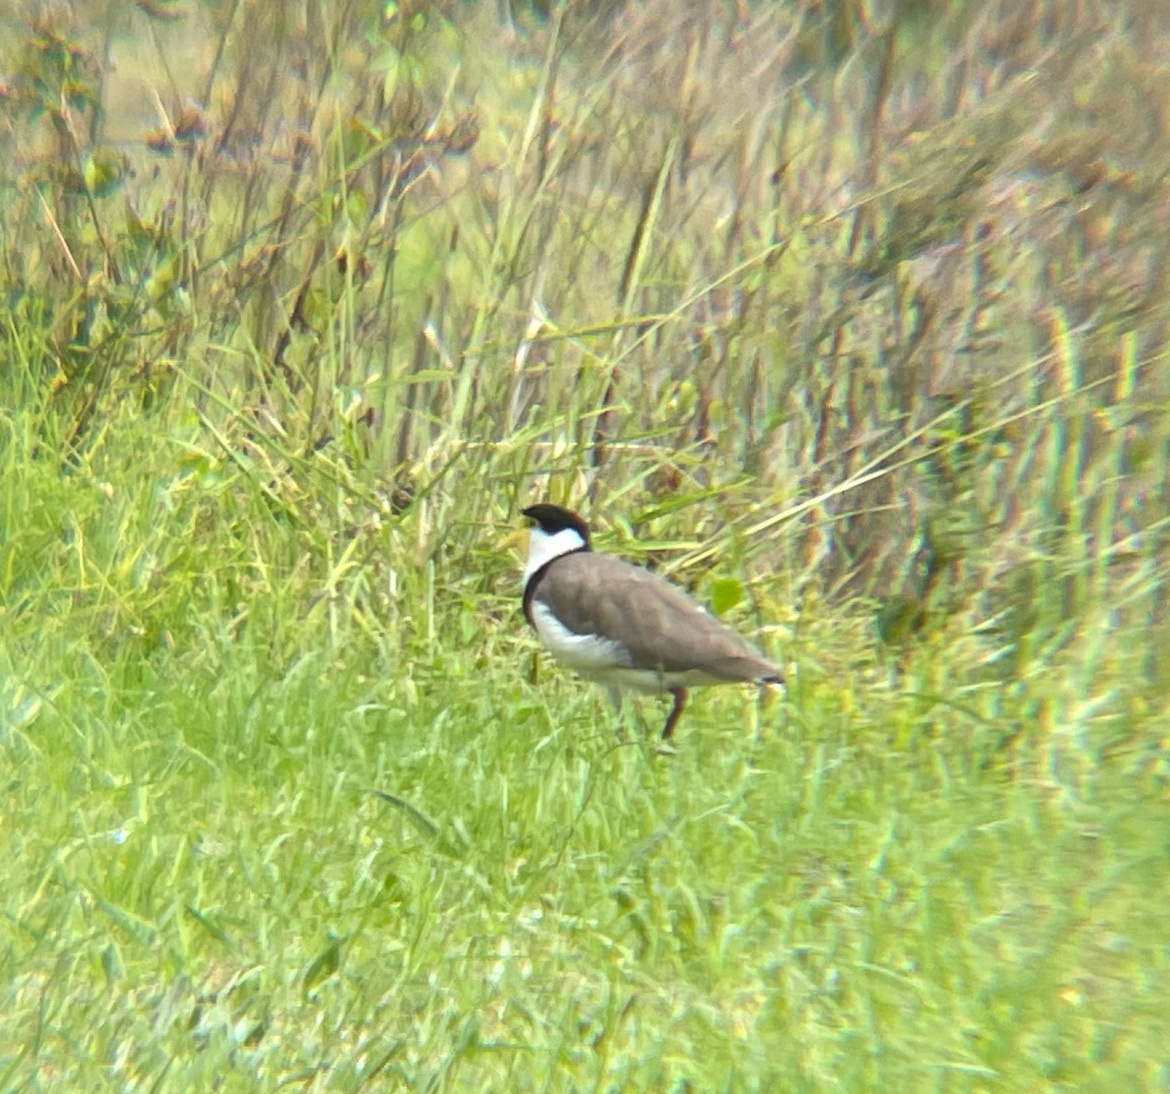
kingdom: Animalia
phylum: Chordata
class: Aves
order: Charadriiformes
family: Charadriidae
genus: Vanellus
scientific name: Vanellus miles
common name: Masked lapwing
